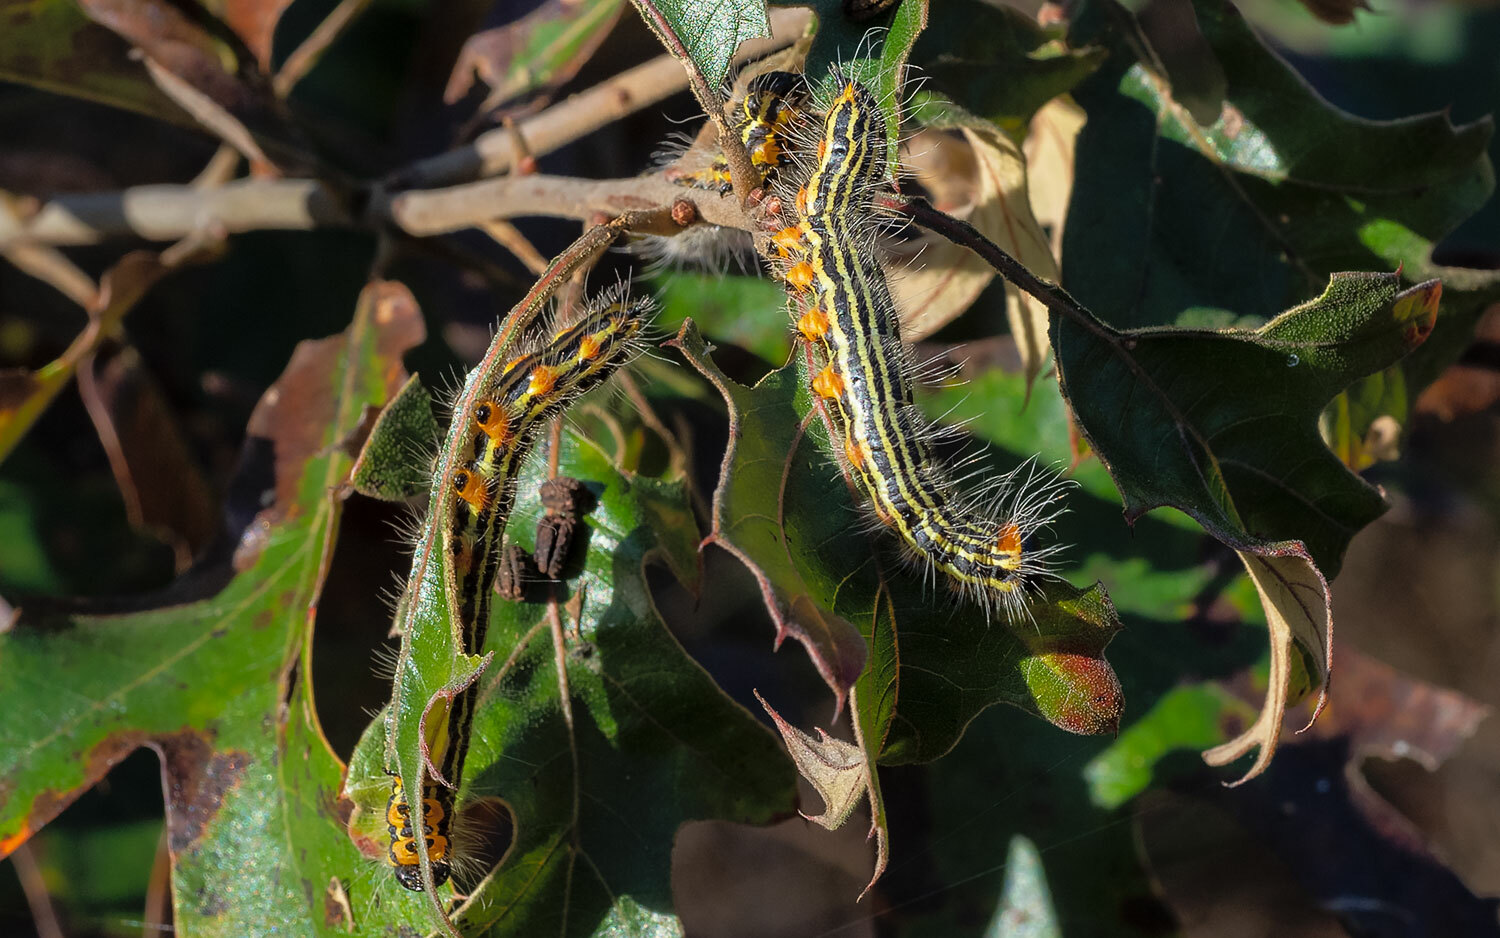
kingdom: Animalia
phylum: Arthropoda
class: Insecta
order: Lepidoptera
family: Notodontidae
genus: Datana
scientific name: Datana ministra
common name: Yellow-necked caterpillar moth
